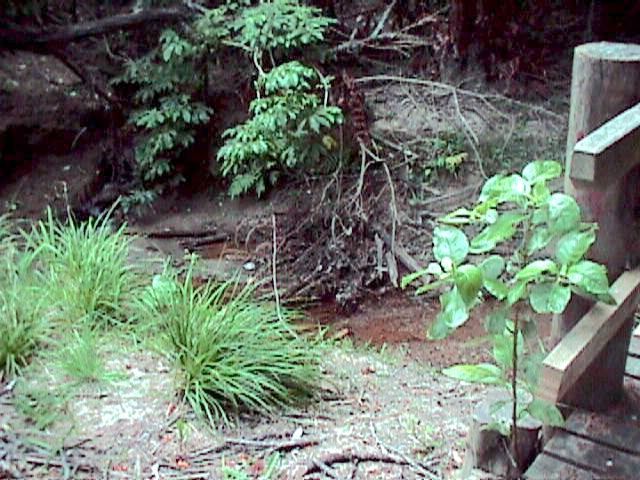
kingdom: Plantae
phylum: Tracheophyta
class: Magnoliopsida
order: Gentianales
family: Rubiaceae
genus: Coprosma
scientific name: Coprosma autumnalis
